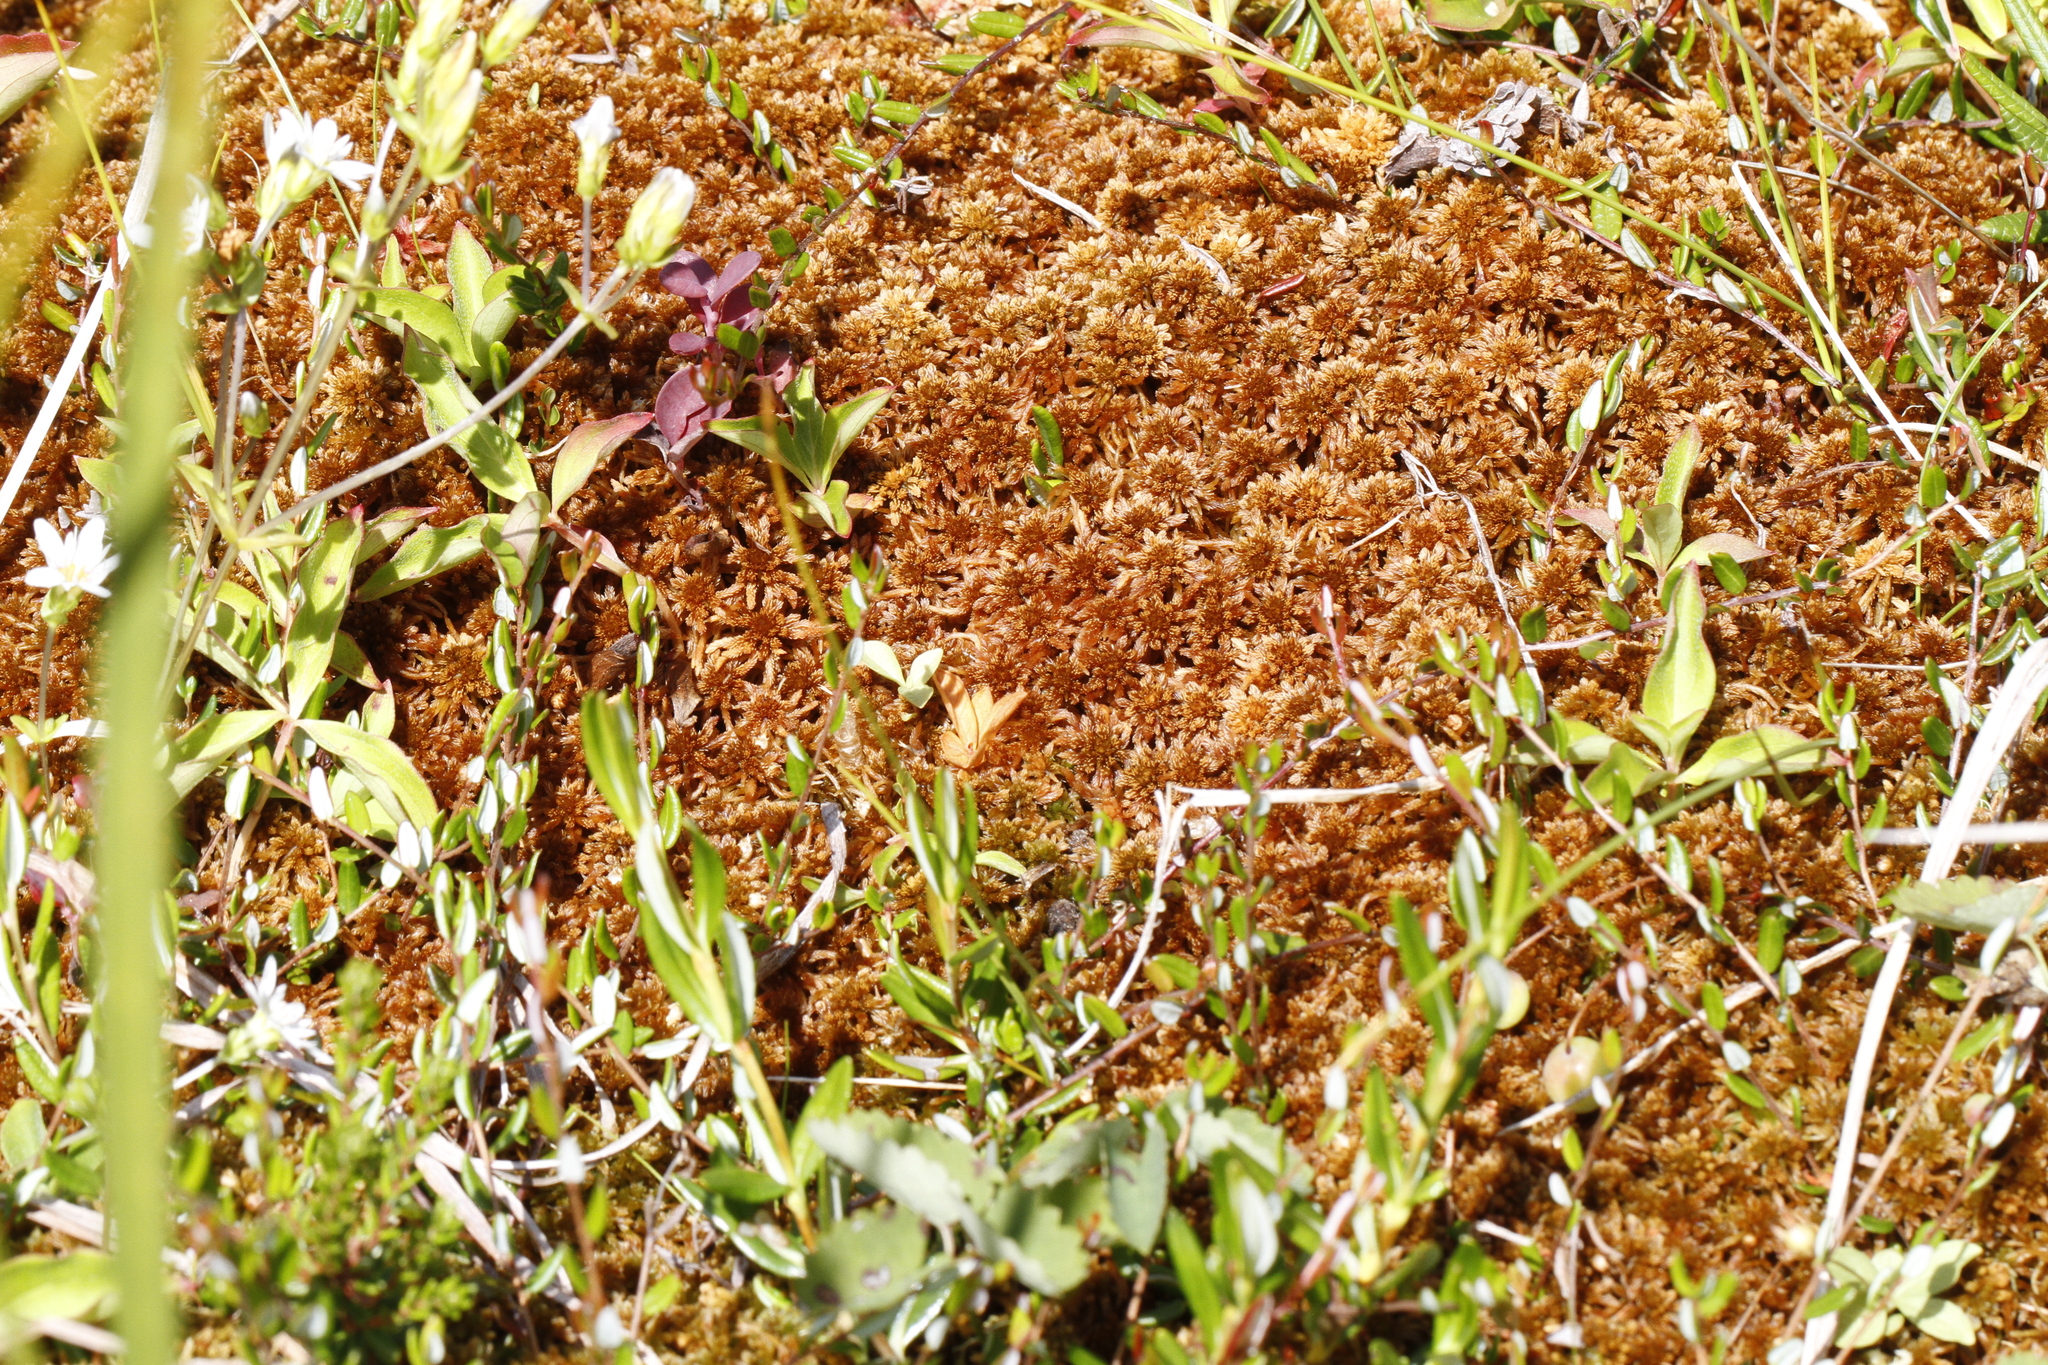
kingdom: Plantae
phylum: Bryophyta
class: Sphagnopsida
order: Sphagnales
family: Sphagnaceae
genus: Sphagnum
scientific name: Sphagnum fuscum
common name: Brown peat moss
